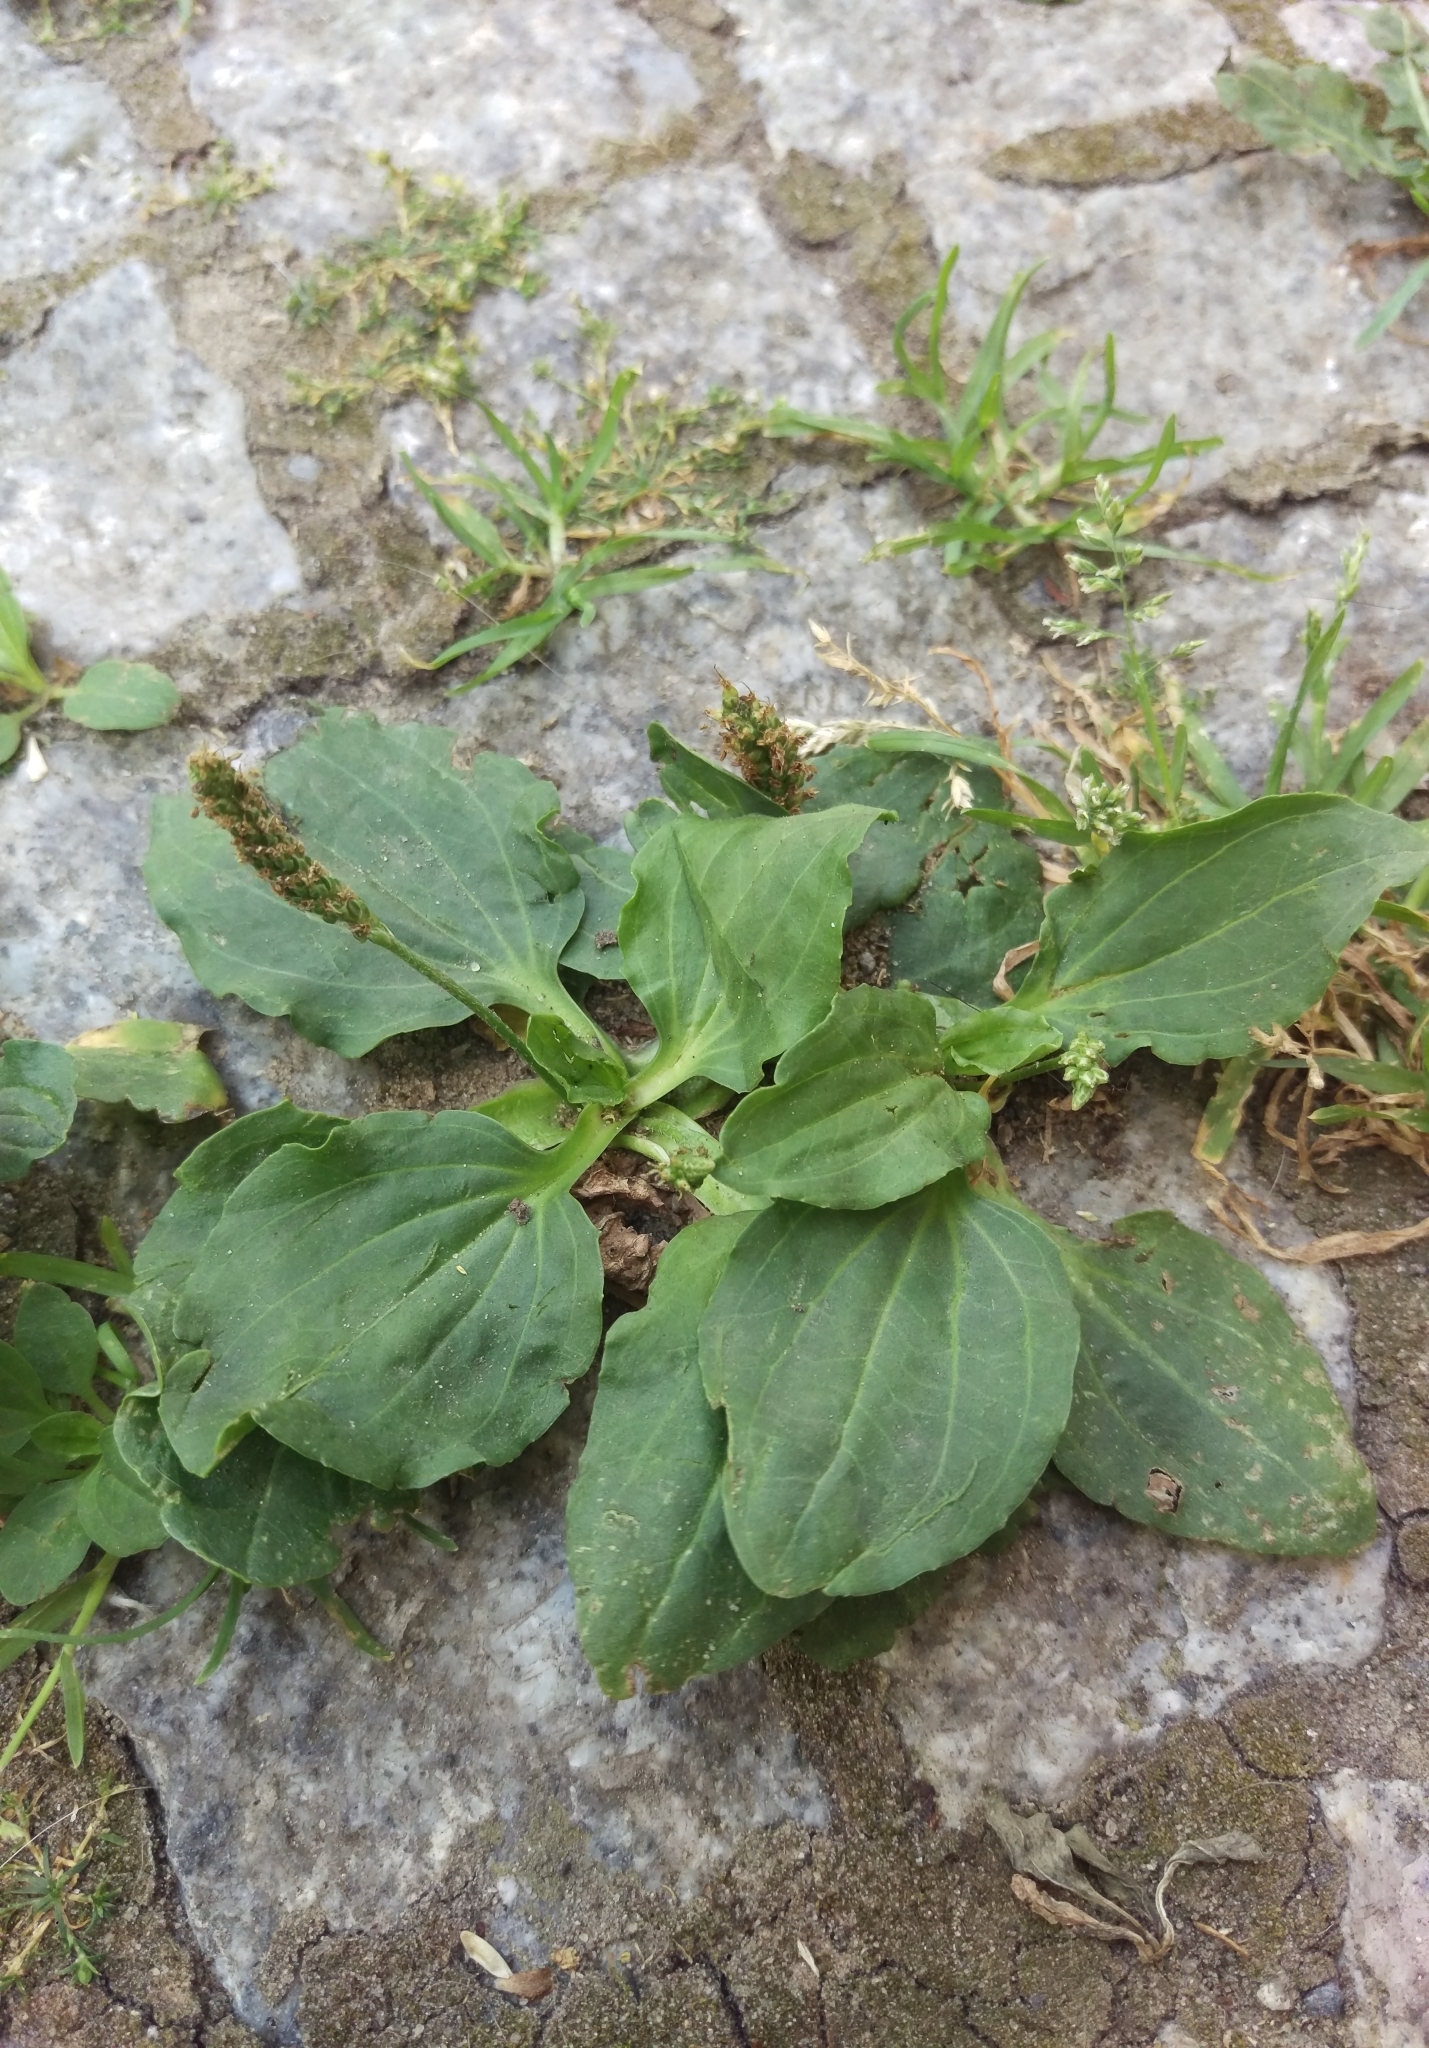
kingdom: Plantae
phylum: Tracheophyta
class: Magnoliopsida
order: Lamiales
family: Plantaginaceae
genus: Plantago
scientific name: Plantago major
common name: Common plantain
